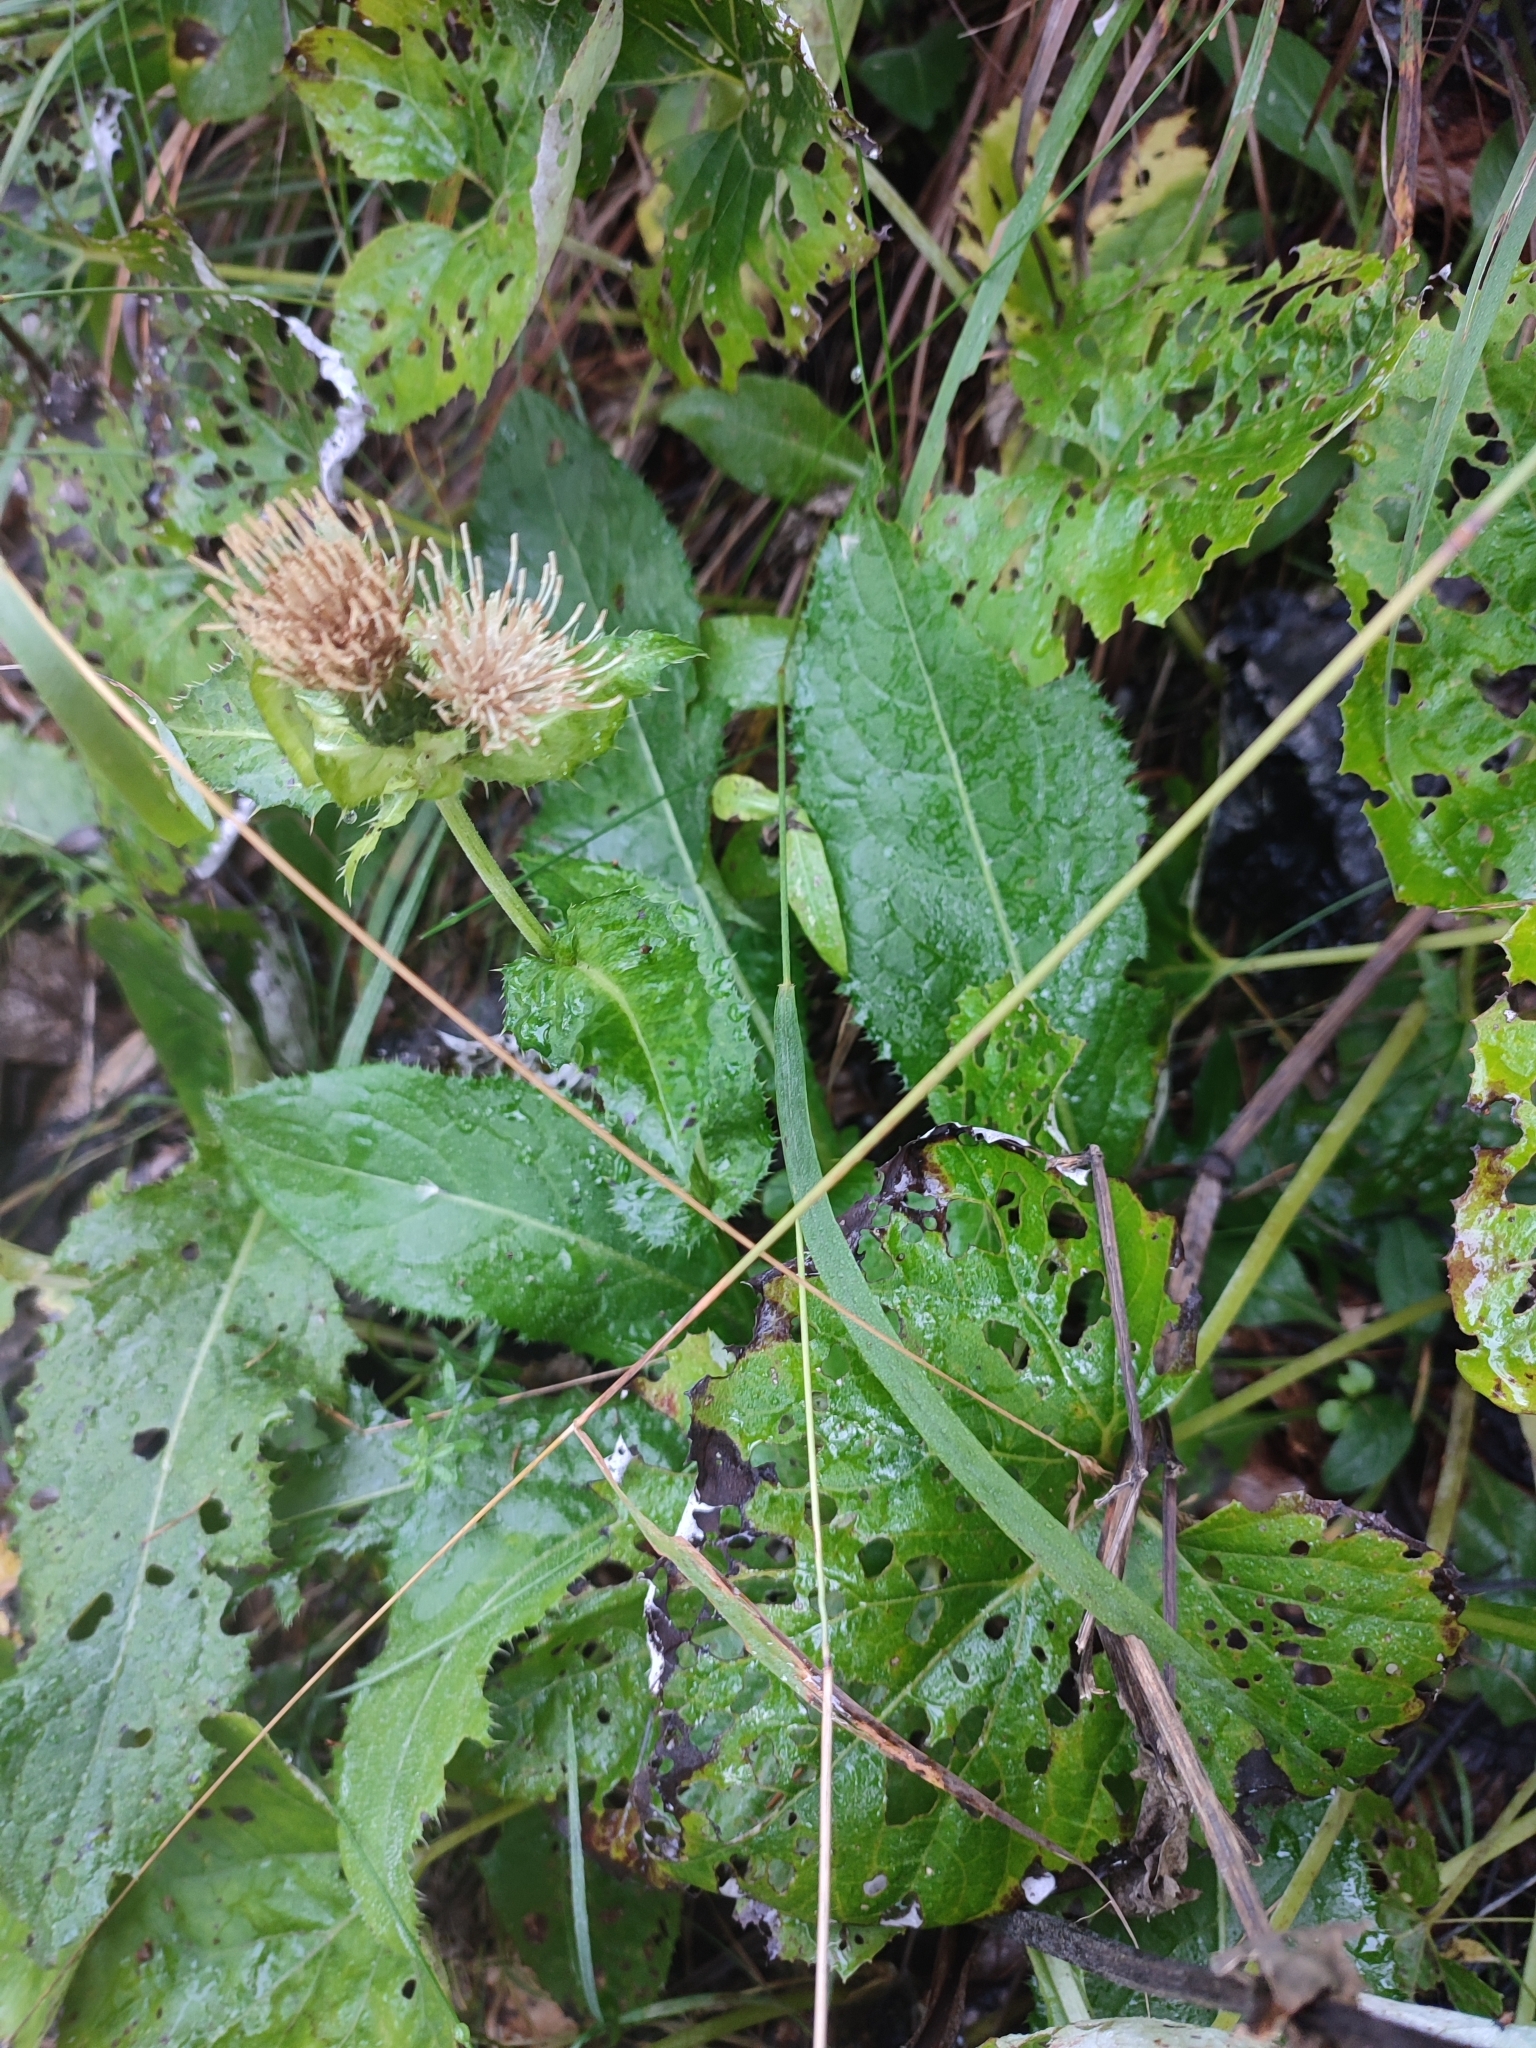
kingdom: Plantae
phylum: Tracheophyta
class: Magnoliopsida
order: Asterales
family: Asteraceae
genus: Cirsium
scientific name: Cirsium oleraceum
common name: Cabbage thistle
